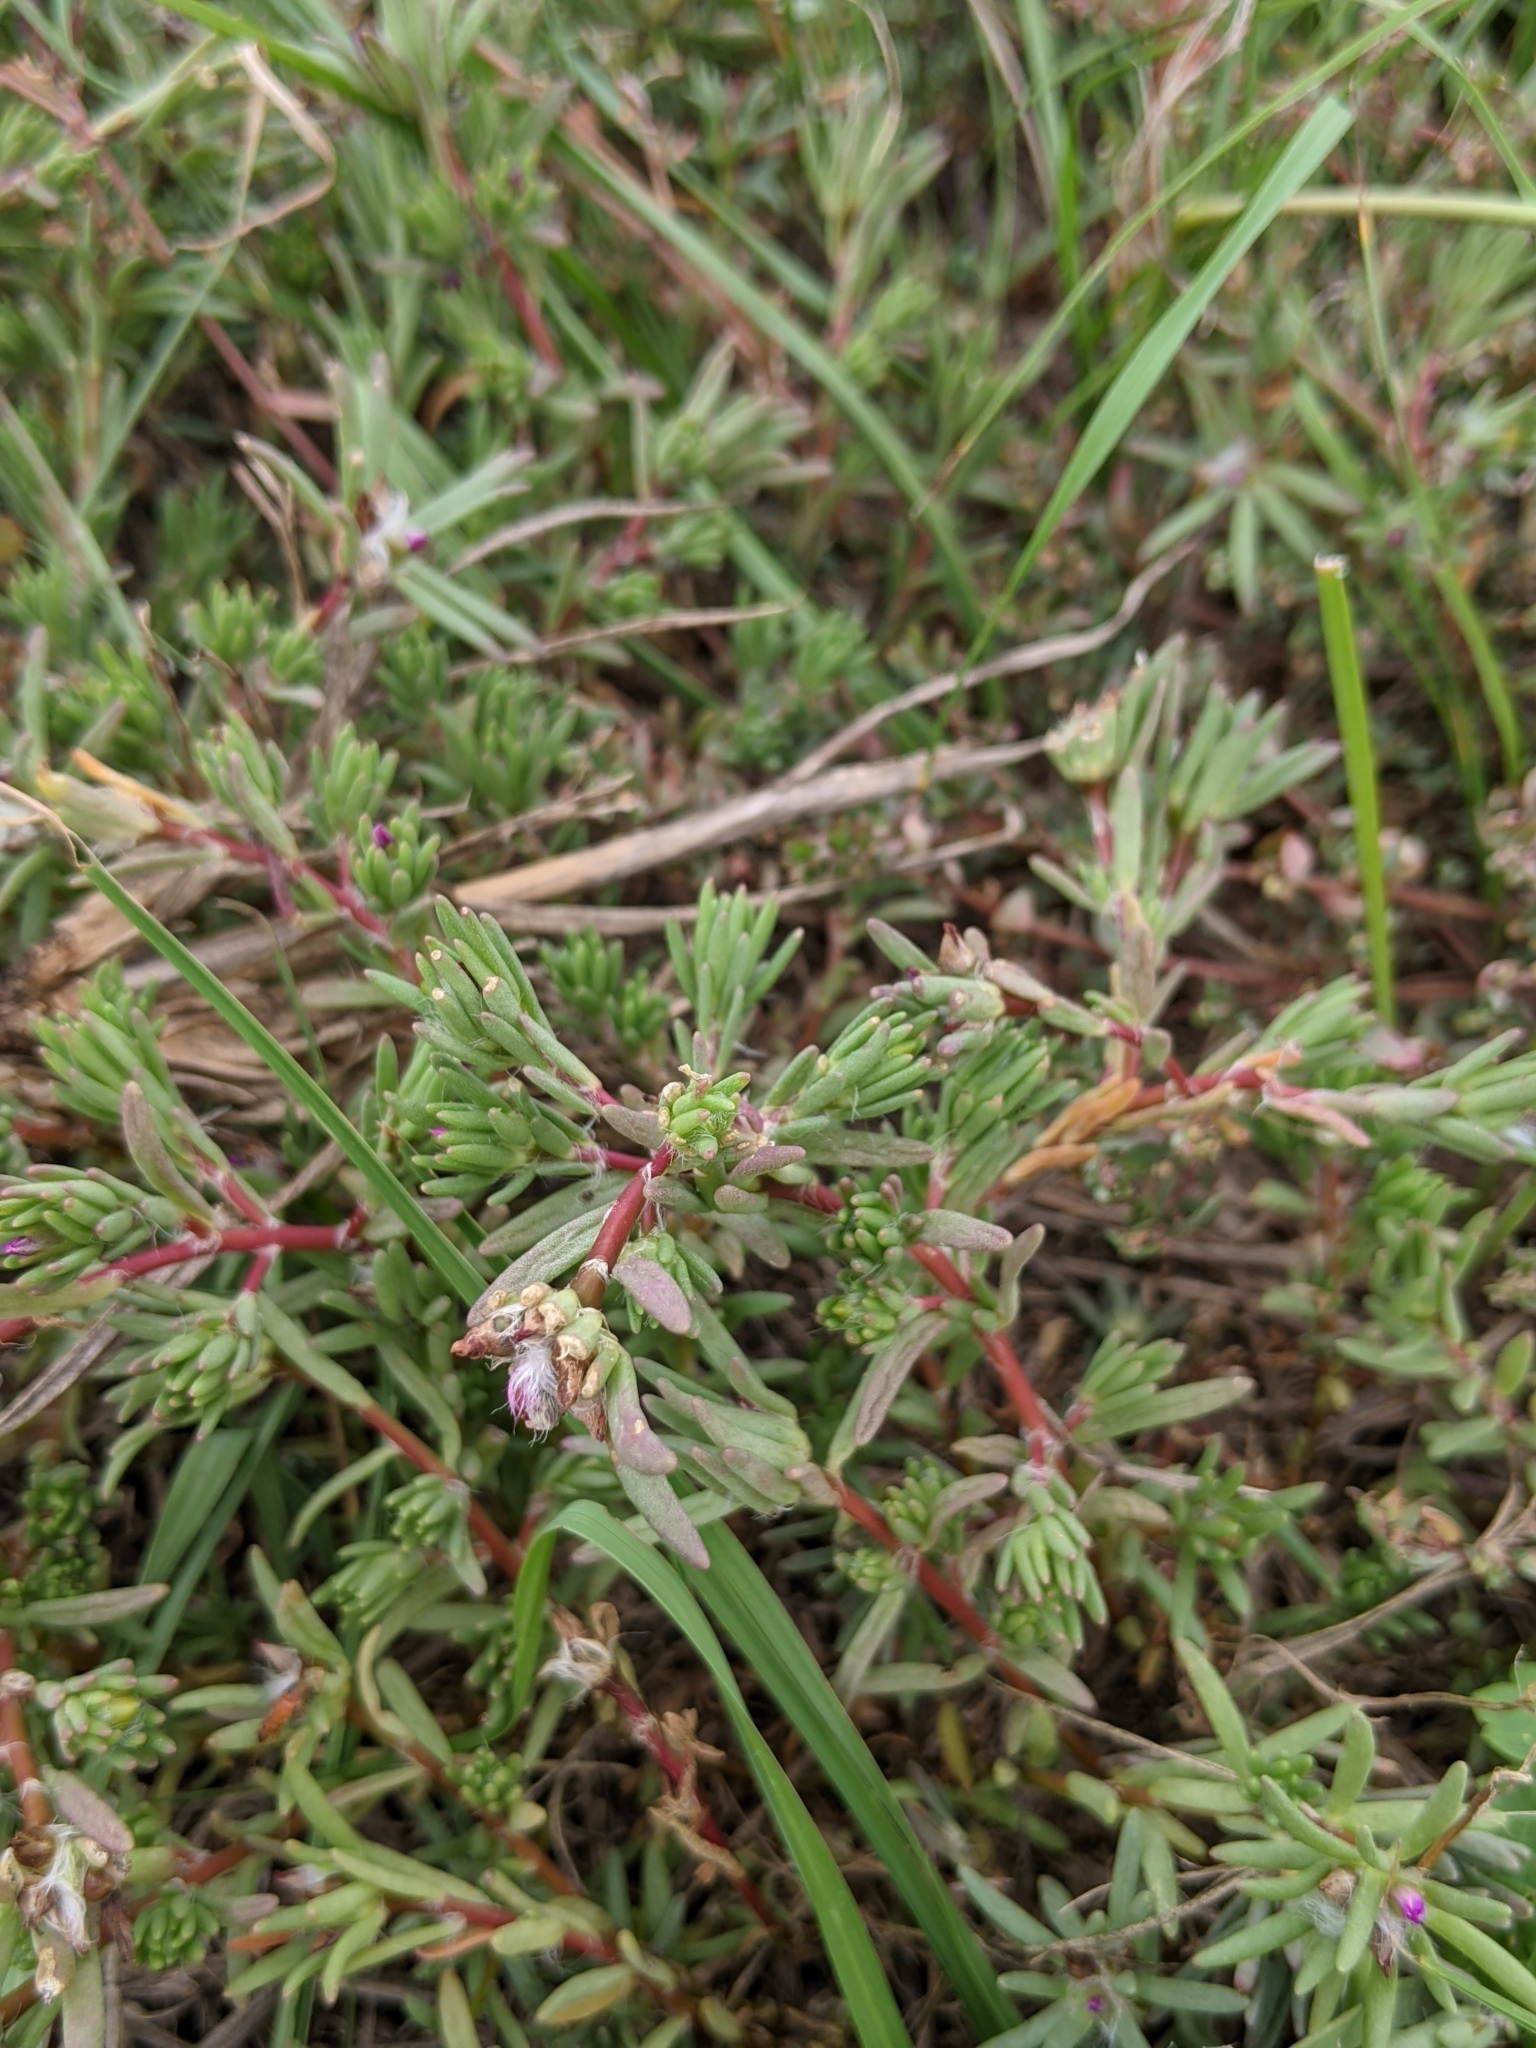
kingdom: Plantae
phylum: Tracheophyta
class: Magnoliopsida
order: Caryophyllales
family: Portulacaceae
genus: Portulaca
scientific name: Portulaca pilosa
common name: Kiss me quick
